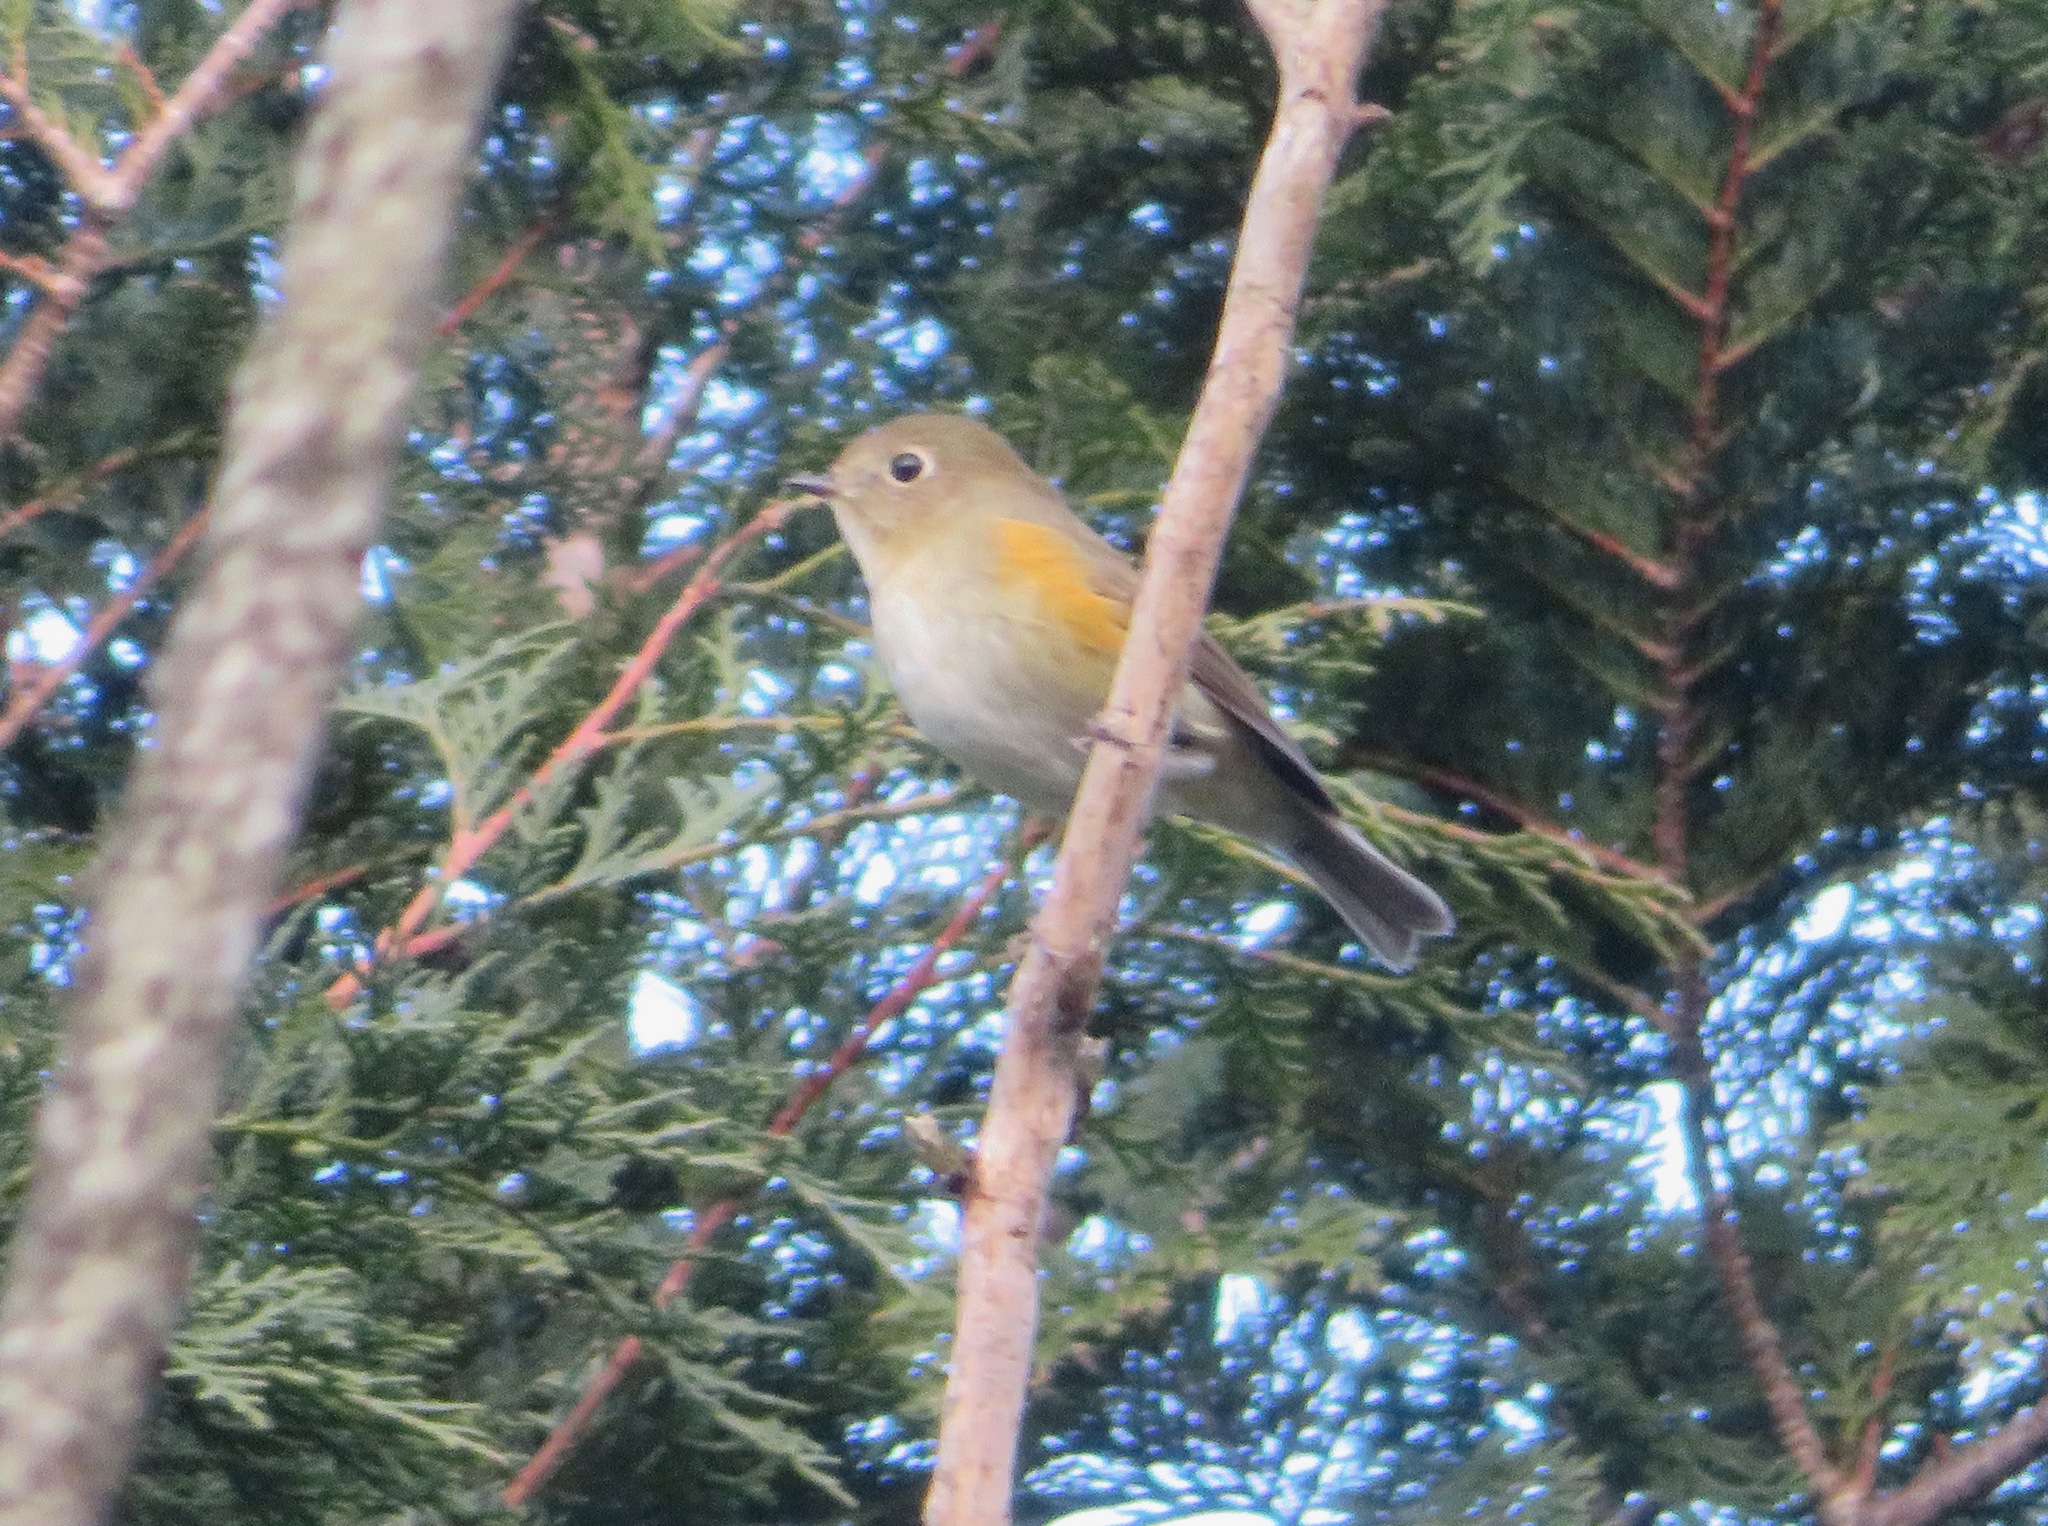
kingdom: Animalia
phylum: Chordata
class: Aves
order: Passeriformes
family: Muscicapidae
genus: Tarsiger
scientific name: Tarsiger cyanurus
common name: Red-flanked bluetail
